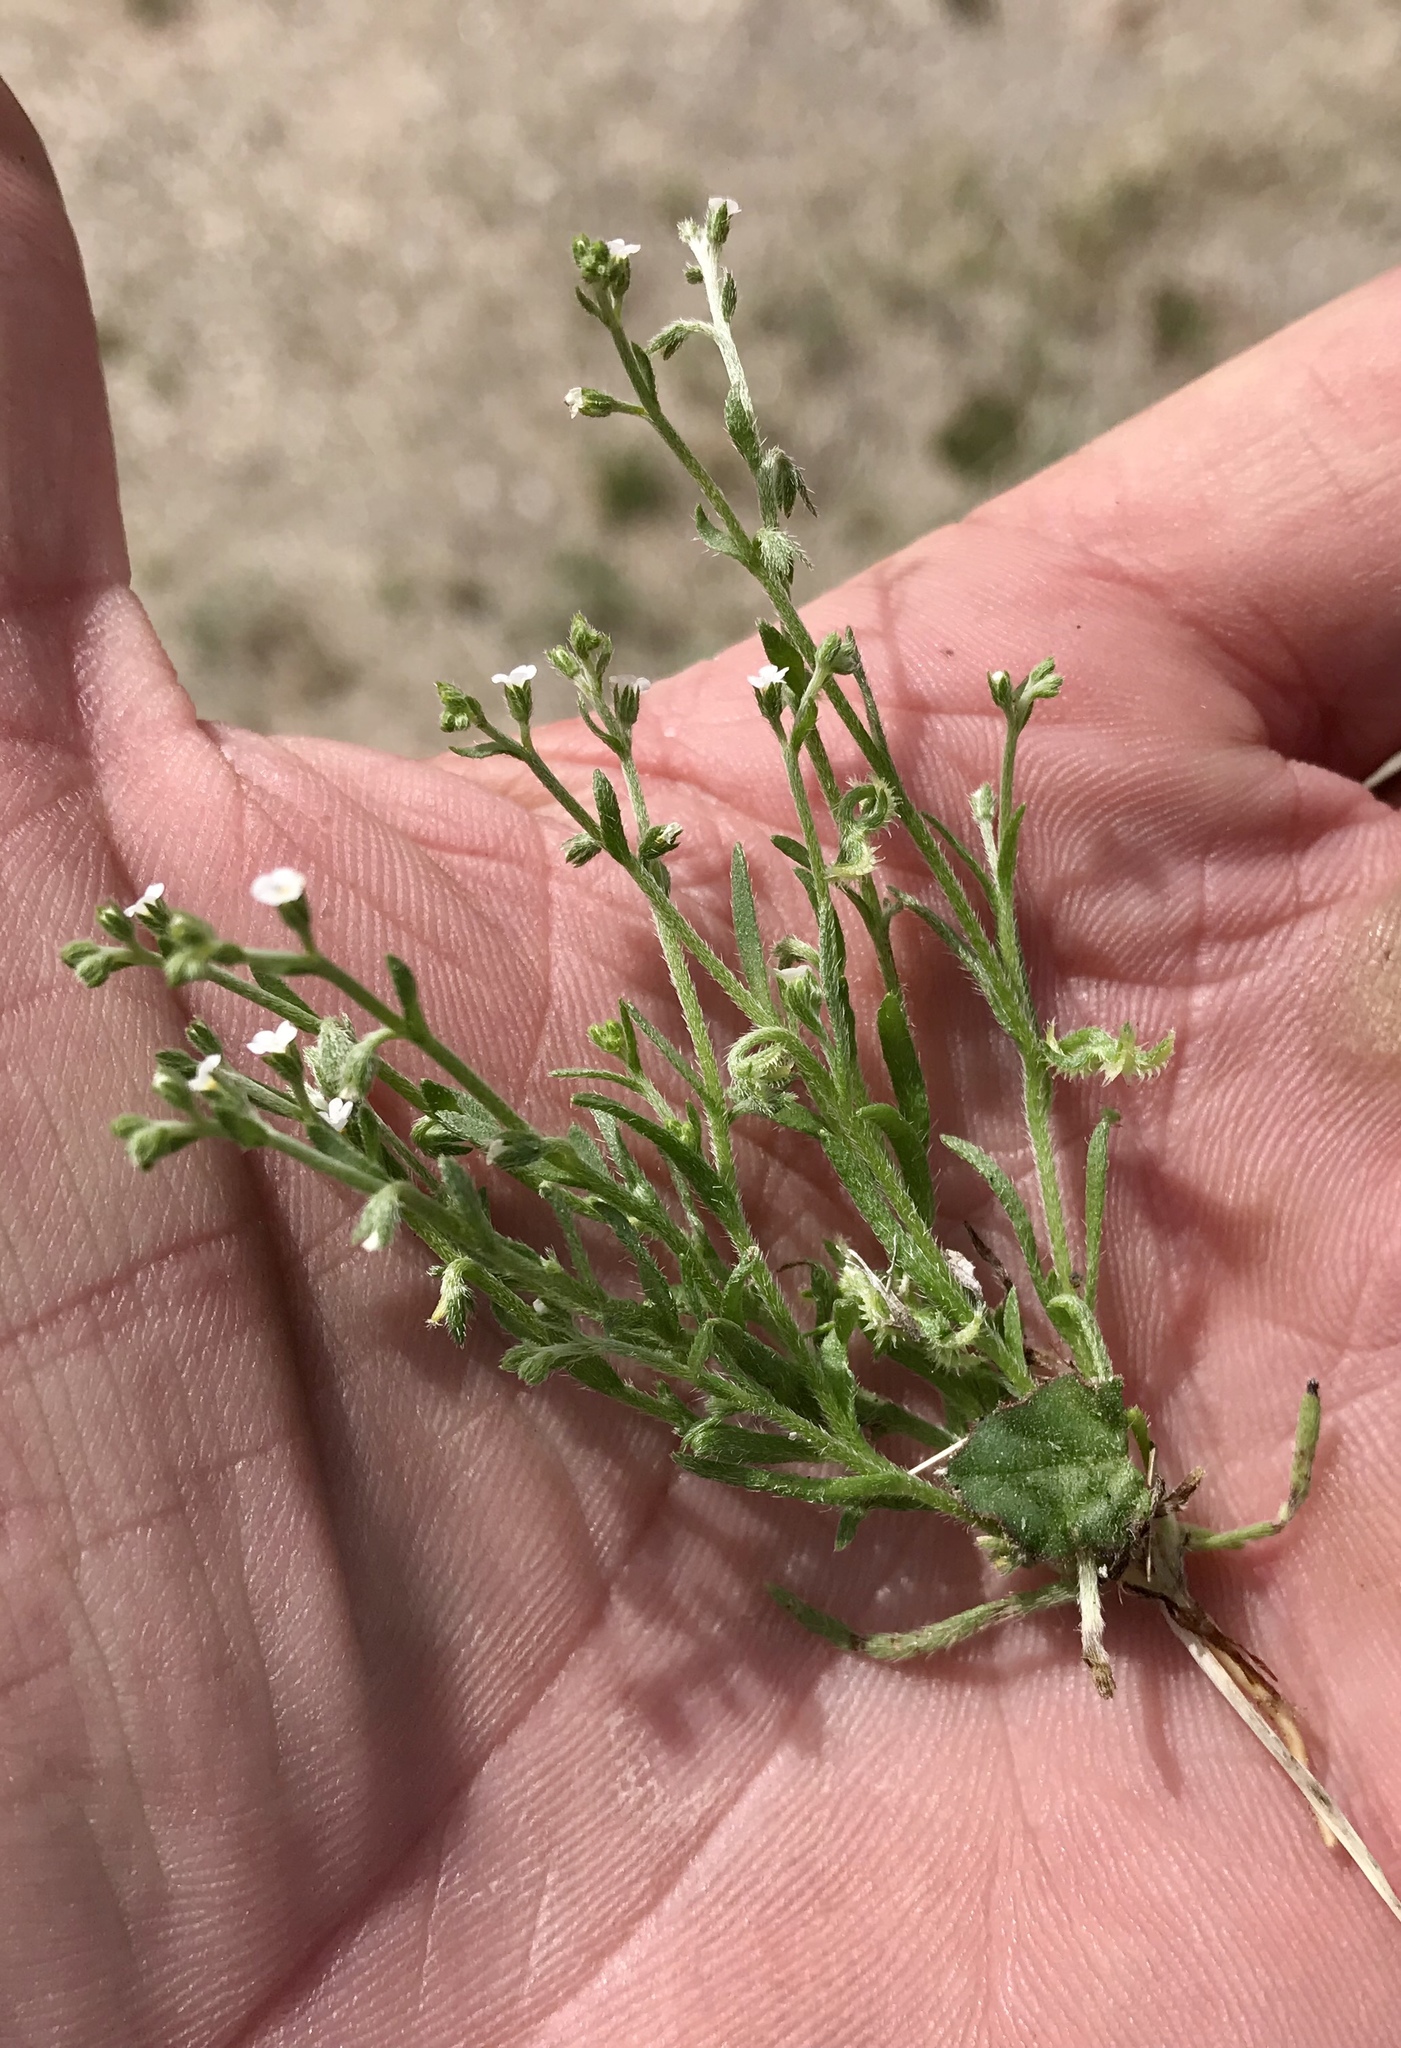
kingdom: Plantae
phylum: Tracheophyta
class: Magnoliopsida
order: Boraginales
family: Boraginaceae
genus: Pectocarya
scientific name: Pectocarya recurvata
